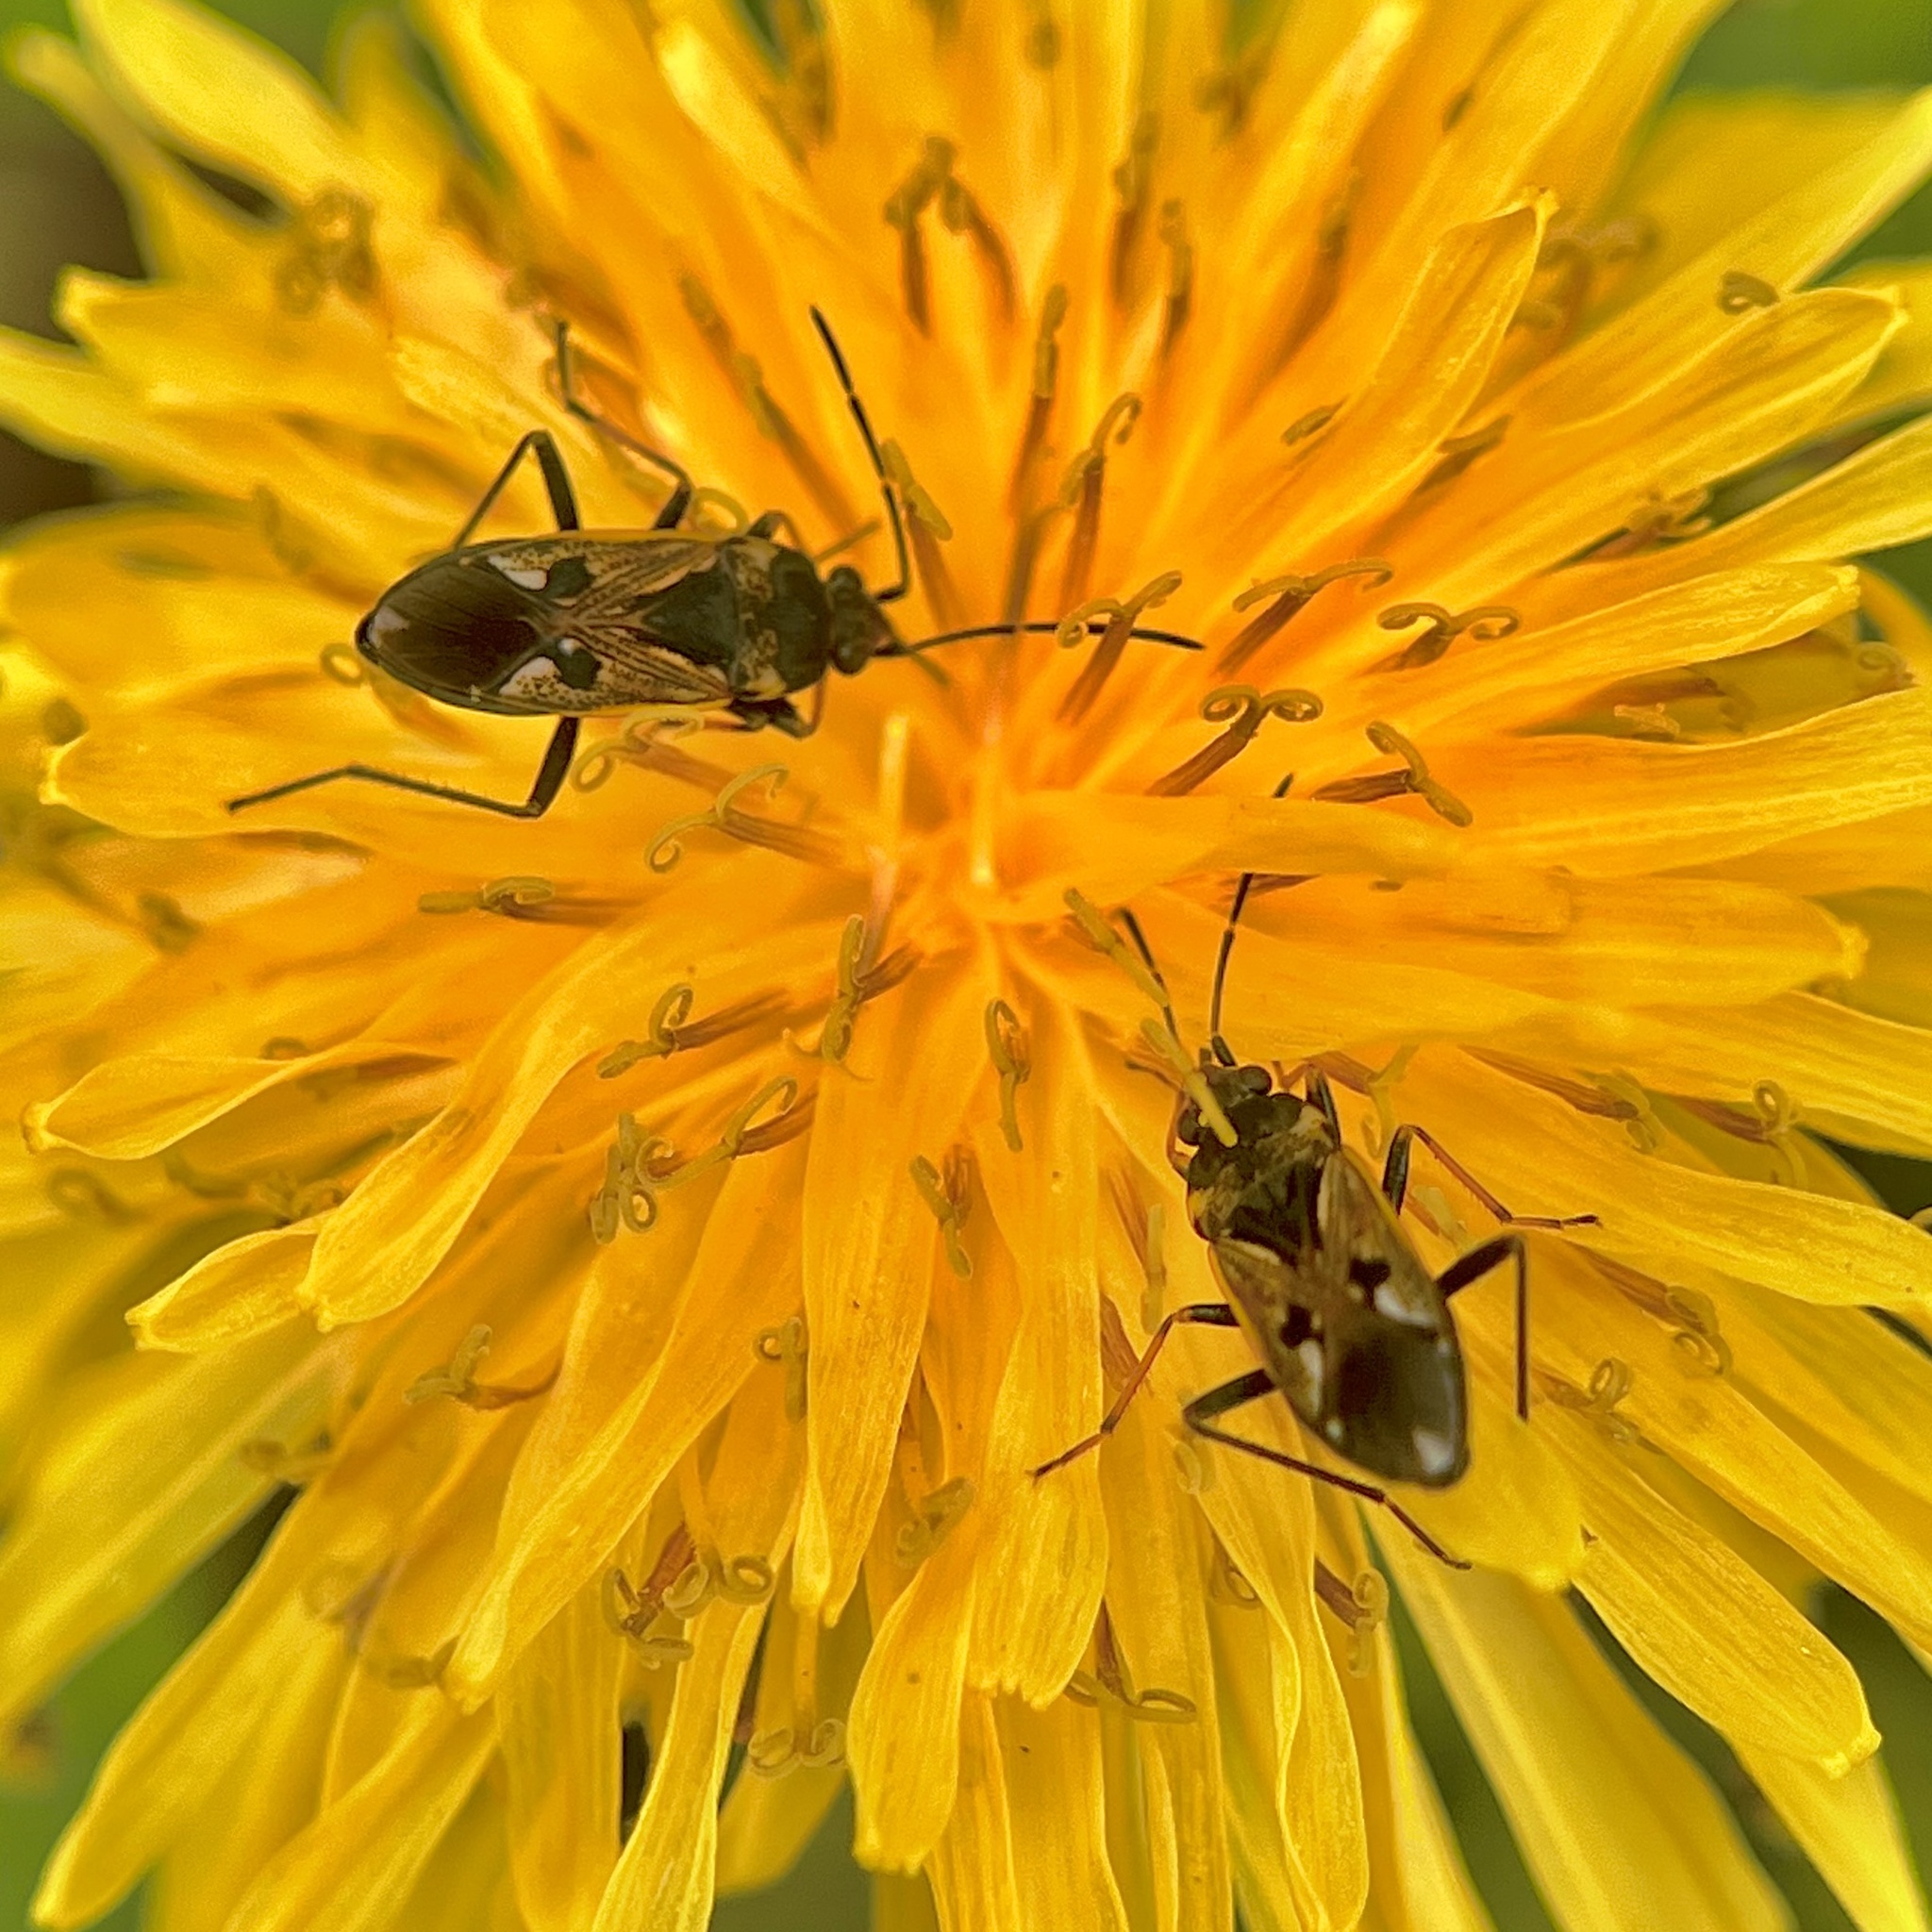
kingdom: Animalia
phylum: Arthropoda
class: Insecta
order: Hemiptera
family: Rhyparochromidae
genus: Rhyparochromus
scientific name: Rhyparochromus vulgaris
